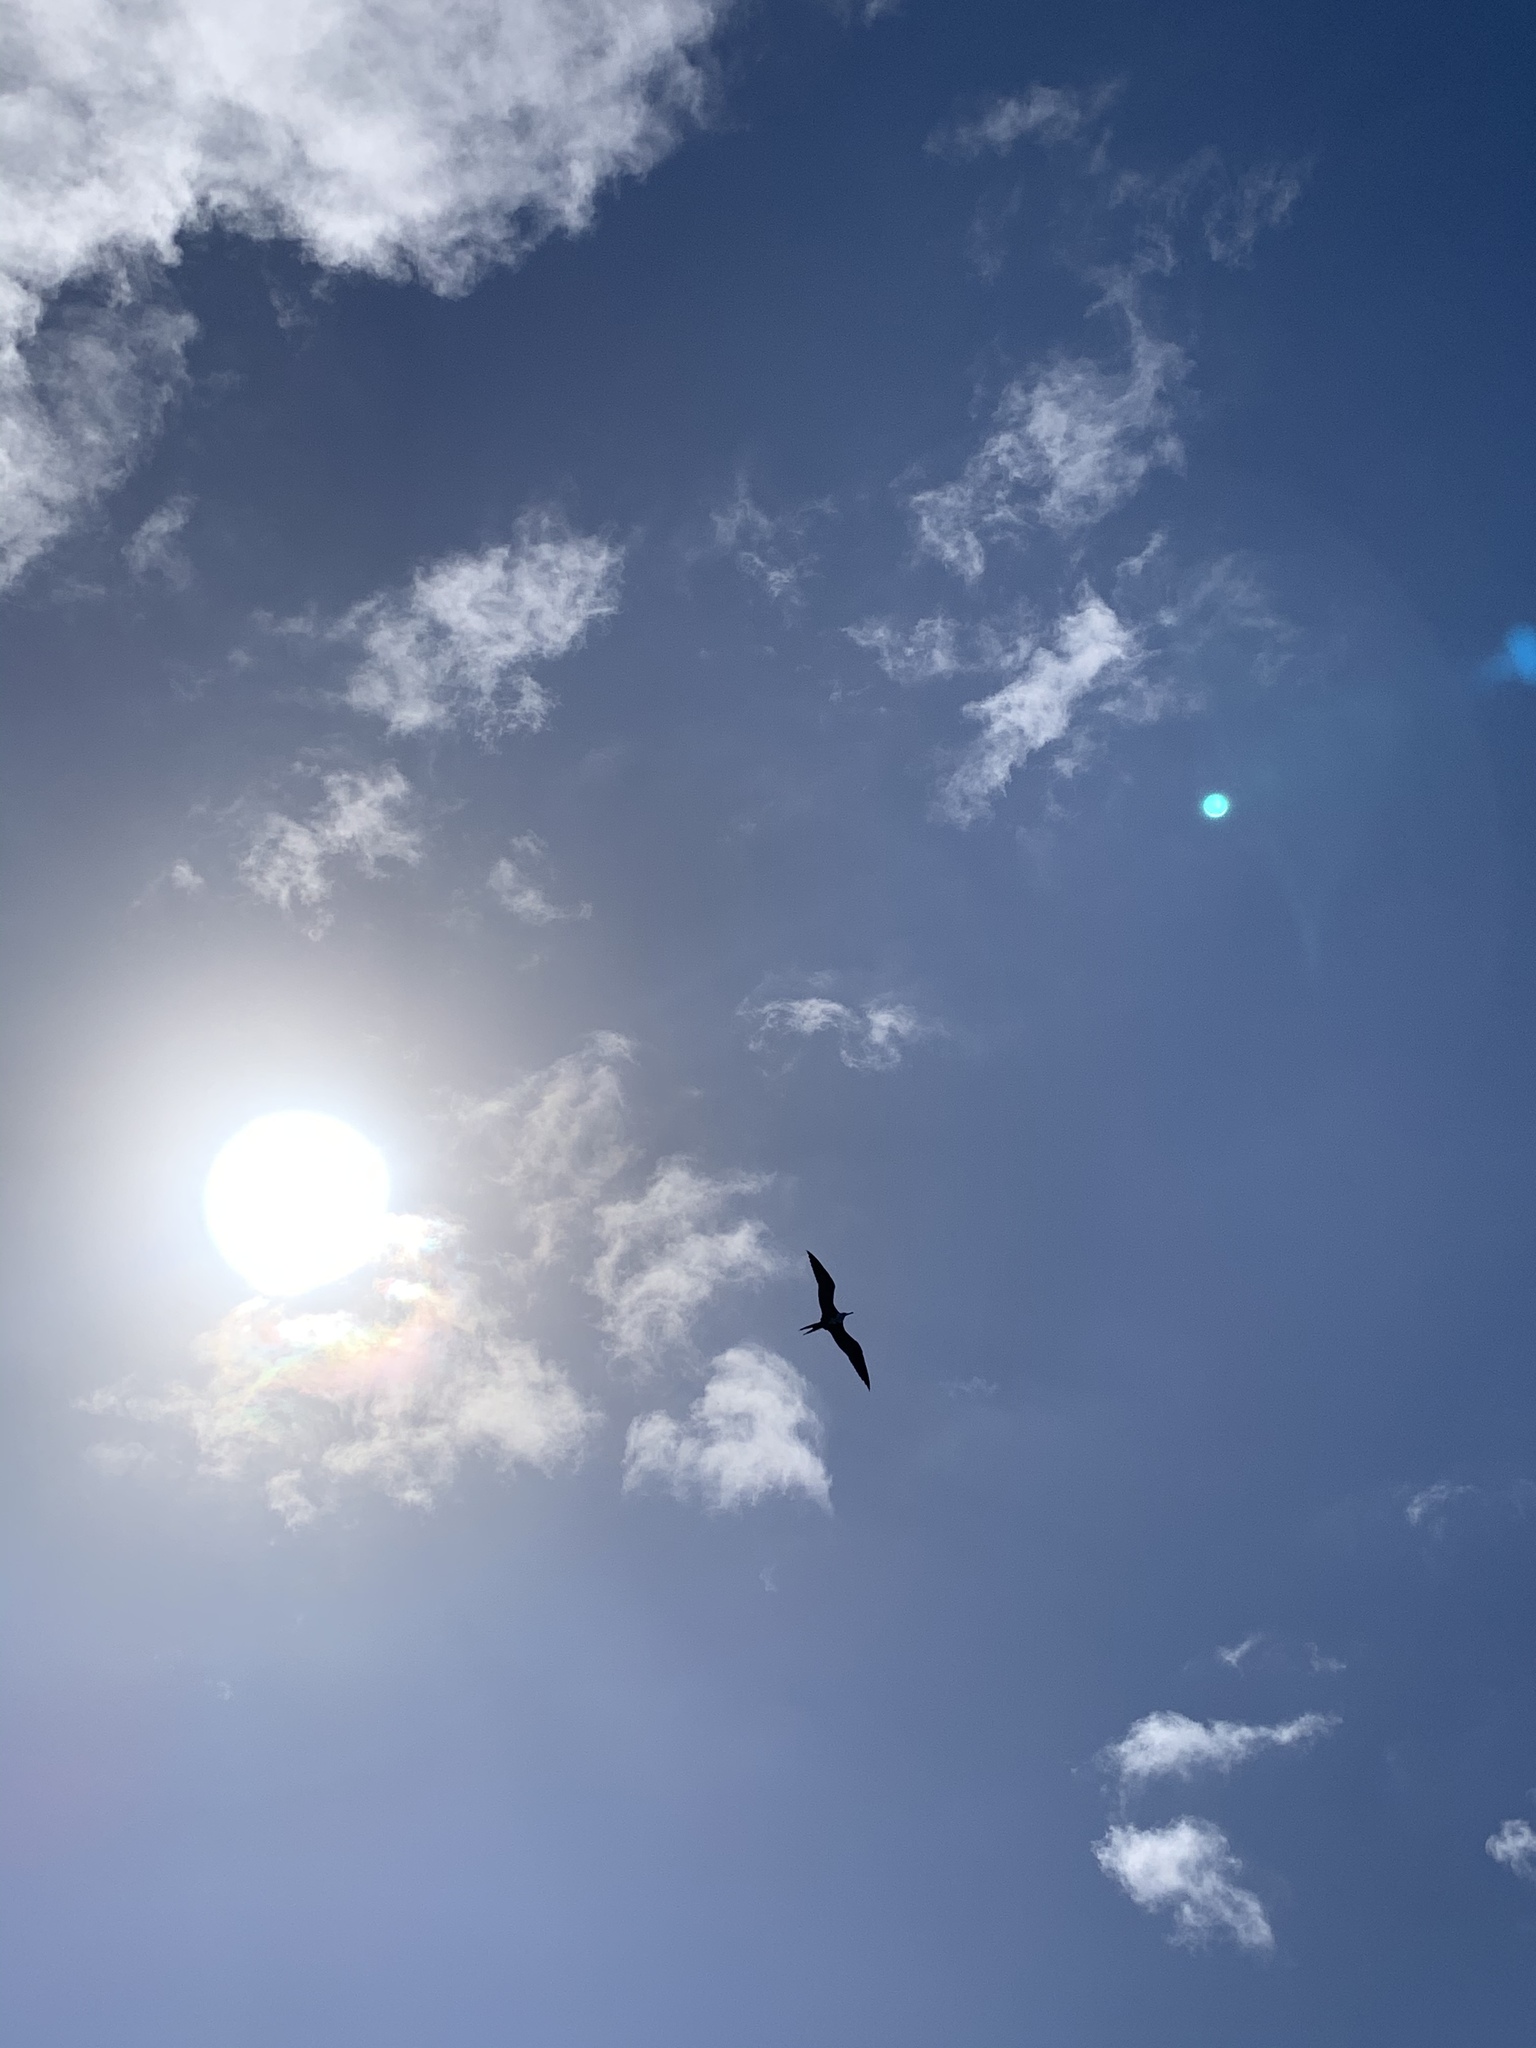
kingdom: Animalia
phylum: Chordata
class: Aves
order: Suliformes
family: Fregatidae
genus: Fregata
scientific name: Fregata magnificens
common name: Magnificent frigatebird
